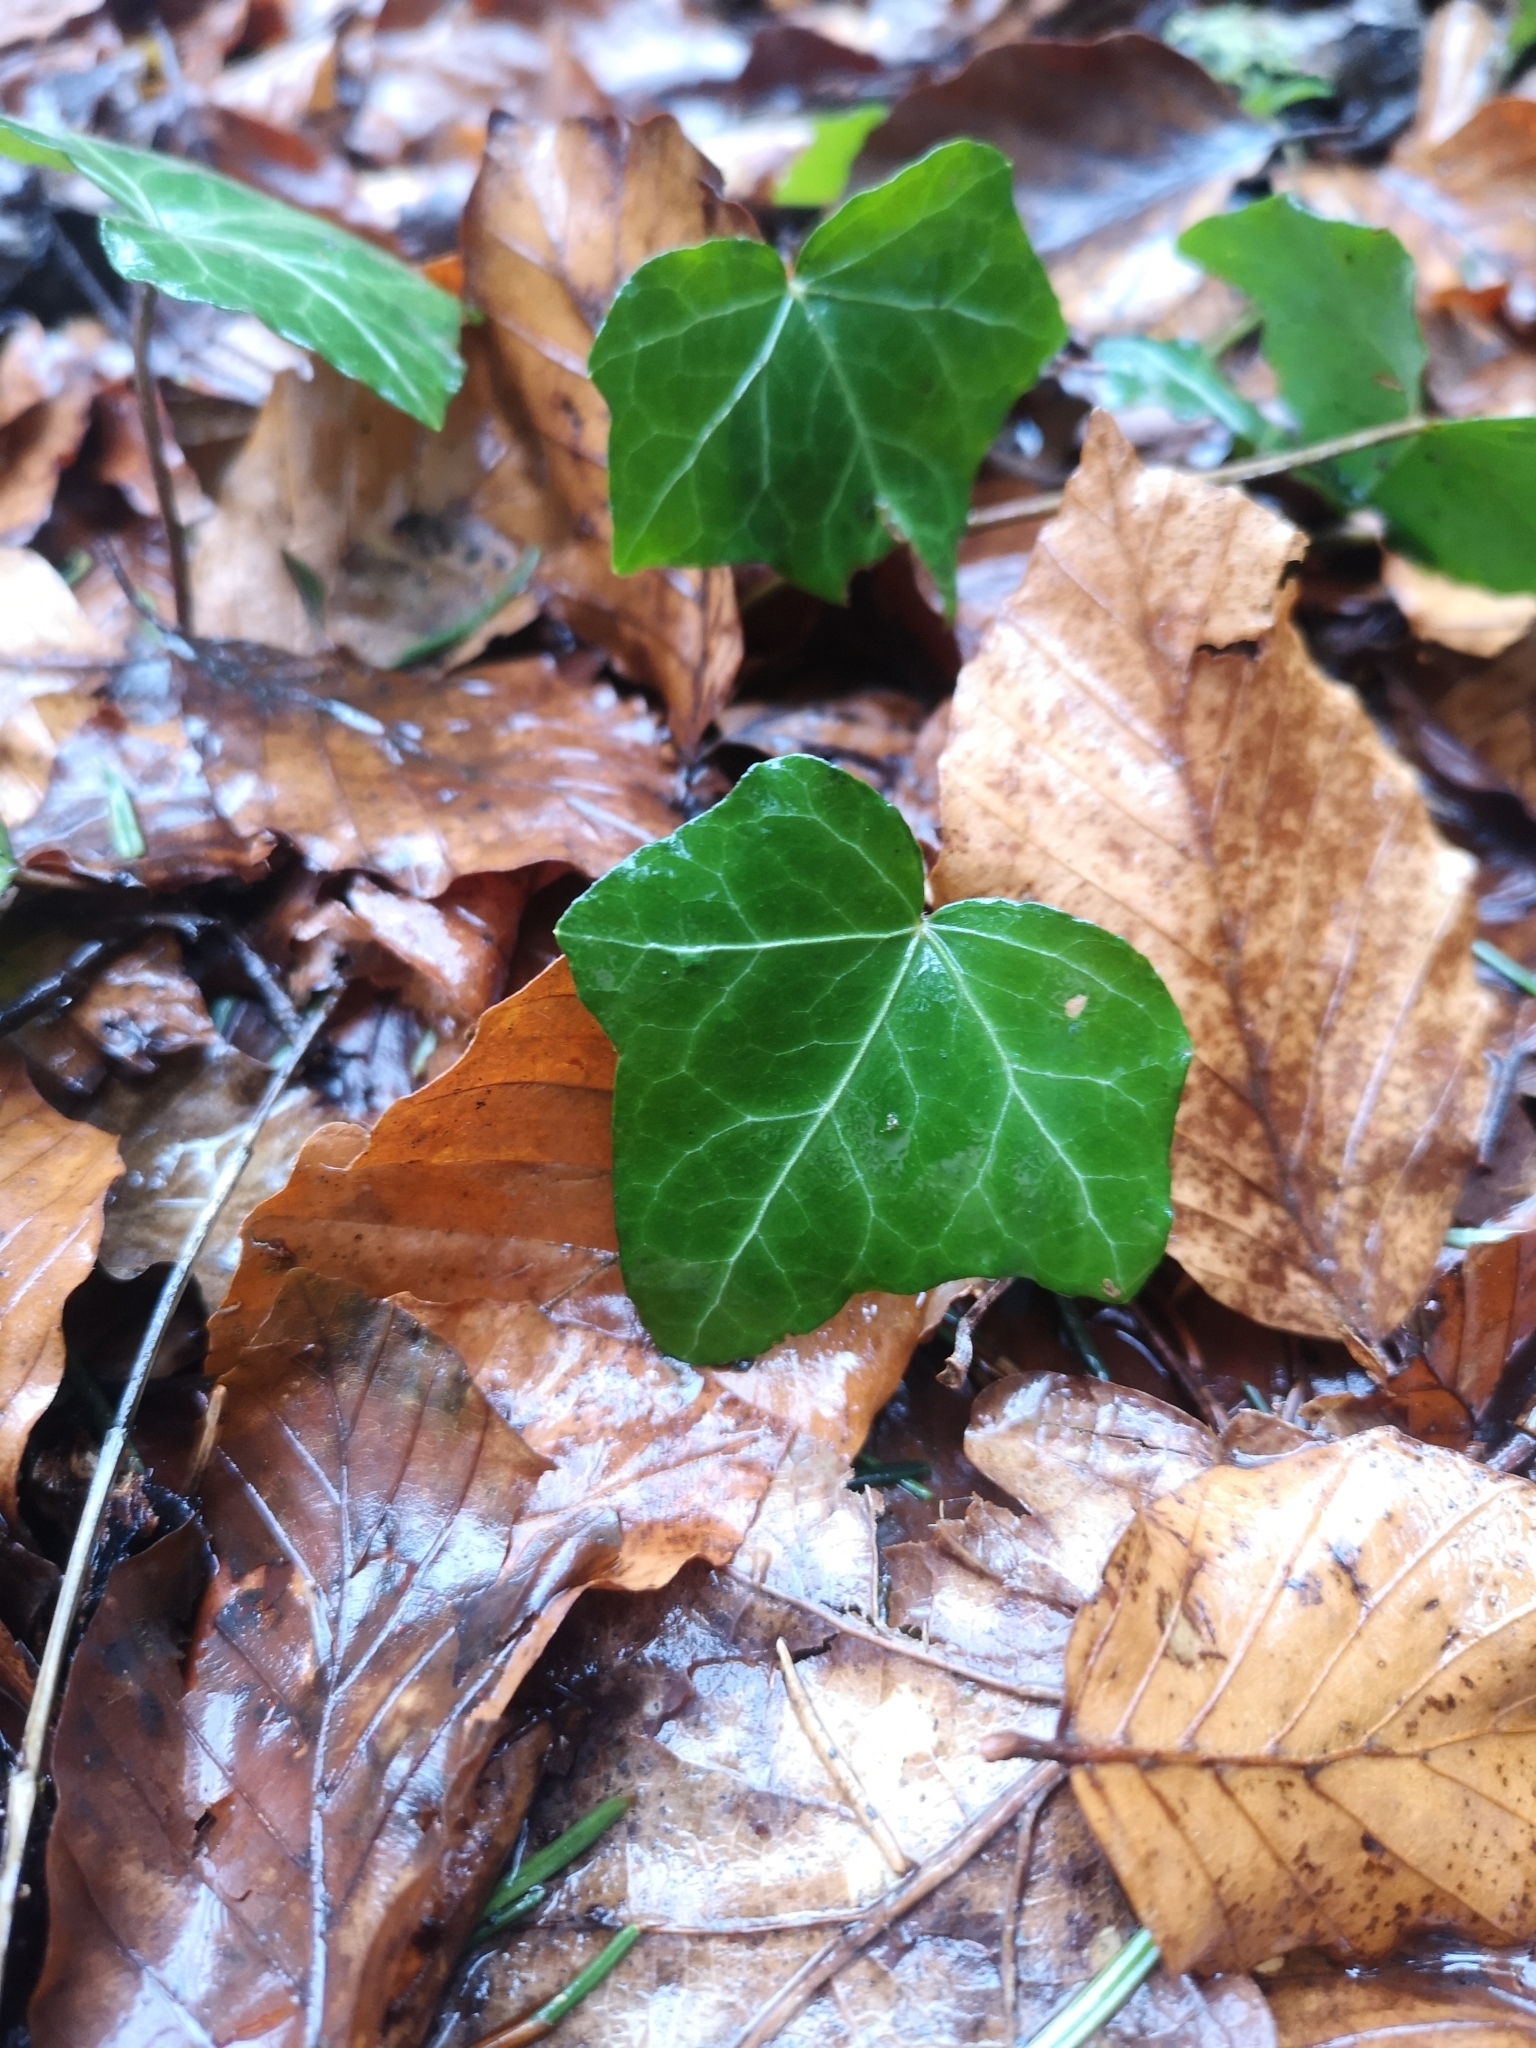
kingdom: Plantae
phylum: Tracheophyta
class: Magnoliopsida
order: Apiales
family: Araliaceae
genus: Hedera
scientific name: Hedera helix
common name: Ivy
